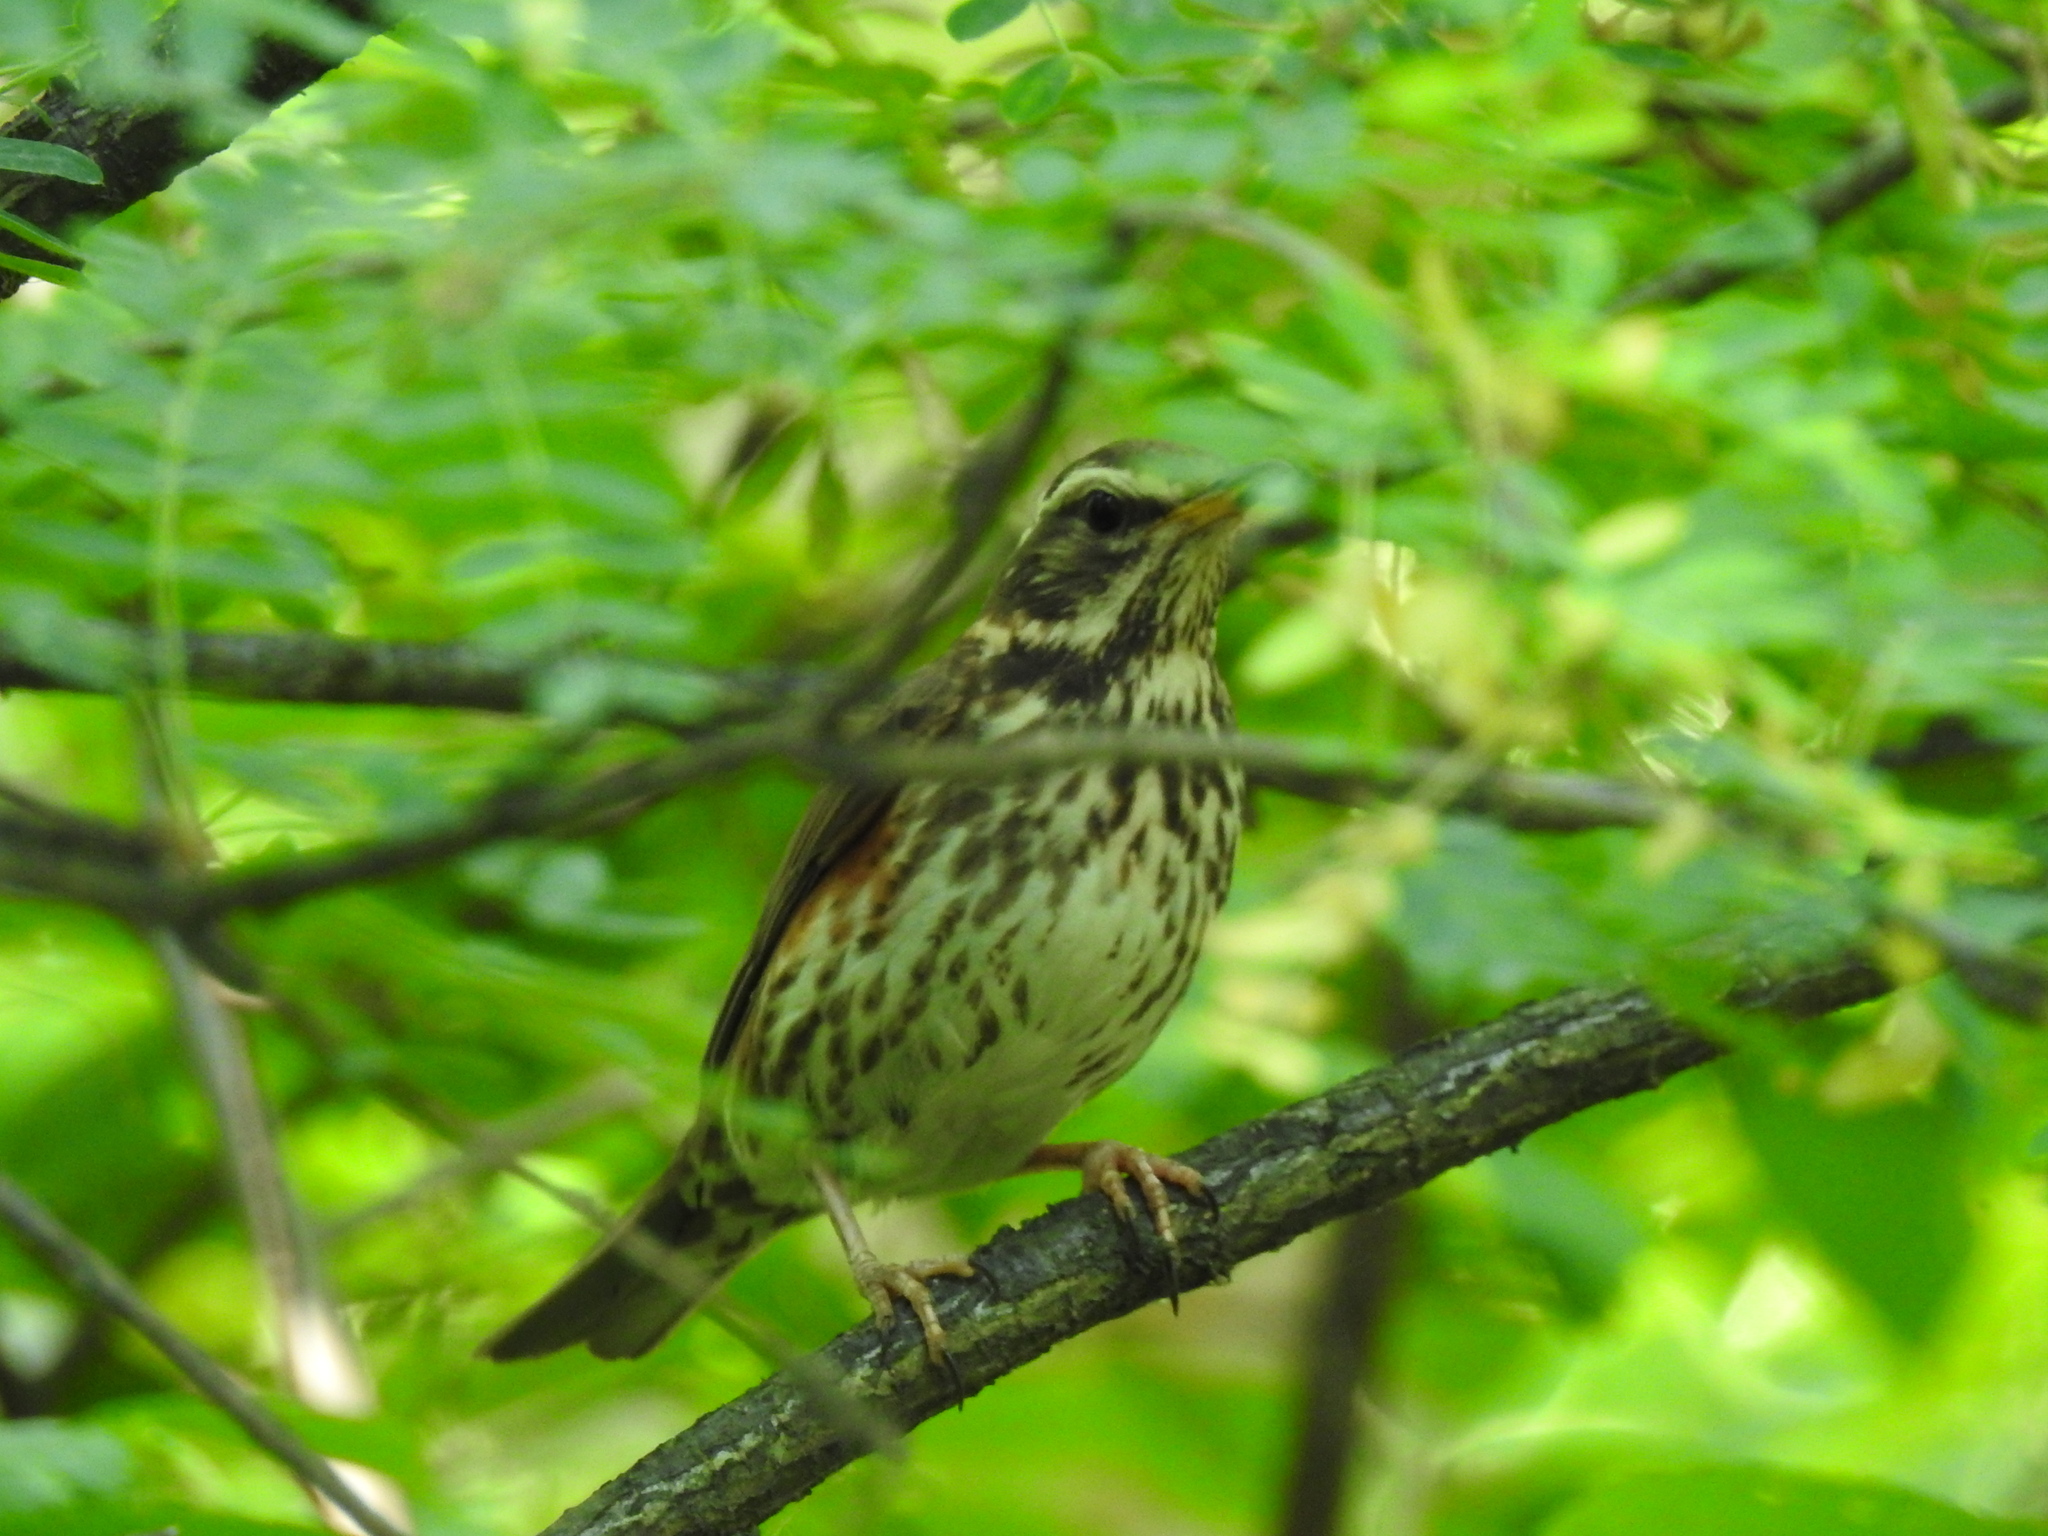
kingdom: Animalia
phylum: Chordata
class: Aves
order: Passeriformes
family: Turdidae
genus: Turdus
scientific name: Turdus iliacus
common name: Redwing
